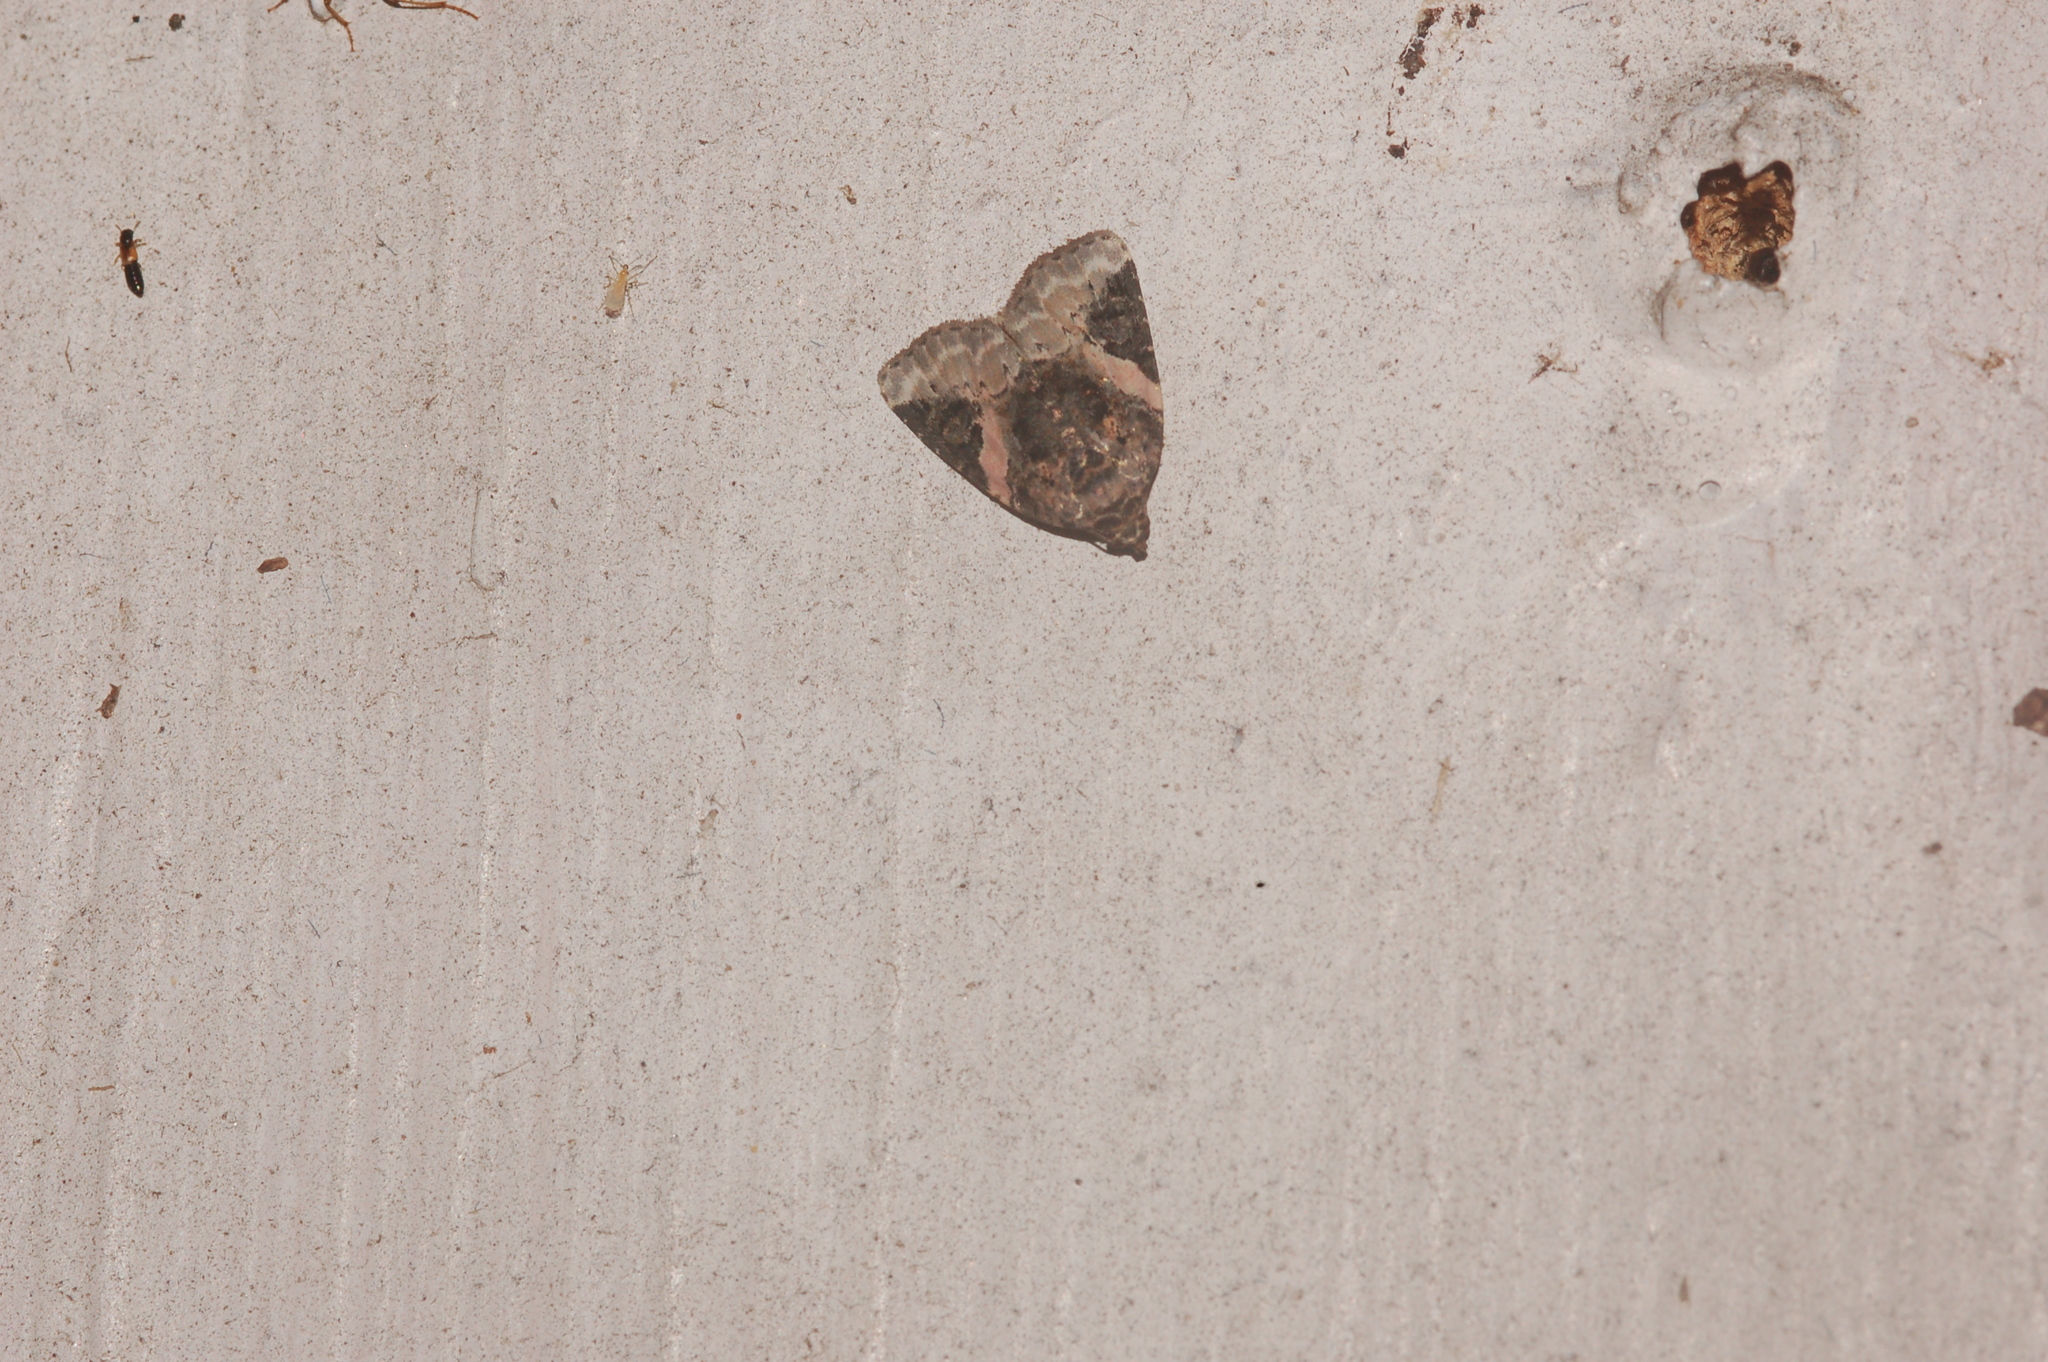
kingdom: Animalia
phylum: Arthropoda
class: Insecta
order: Lepidoptera
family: Noctuidae
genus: Pseudeustrotia
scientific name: Pseudeustrotia carneola
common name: Pink-barred lithacodia moth
